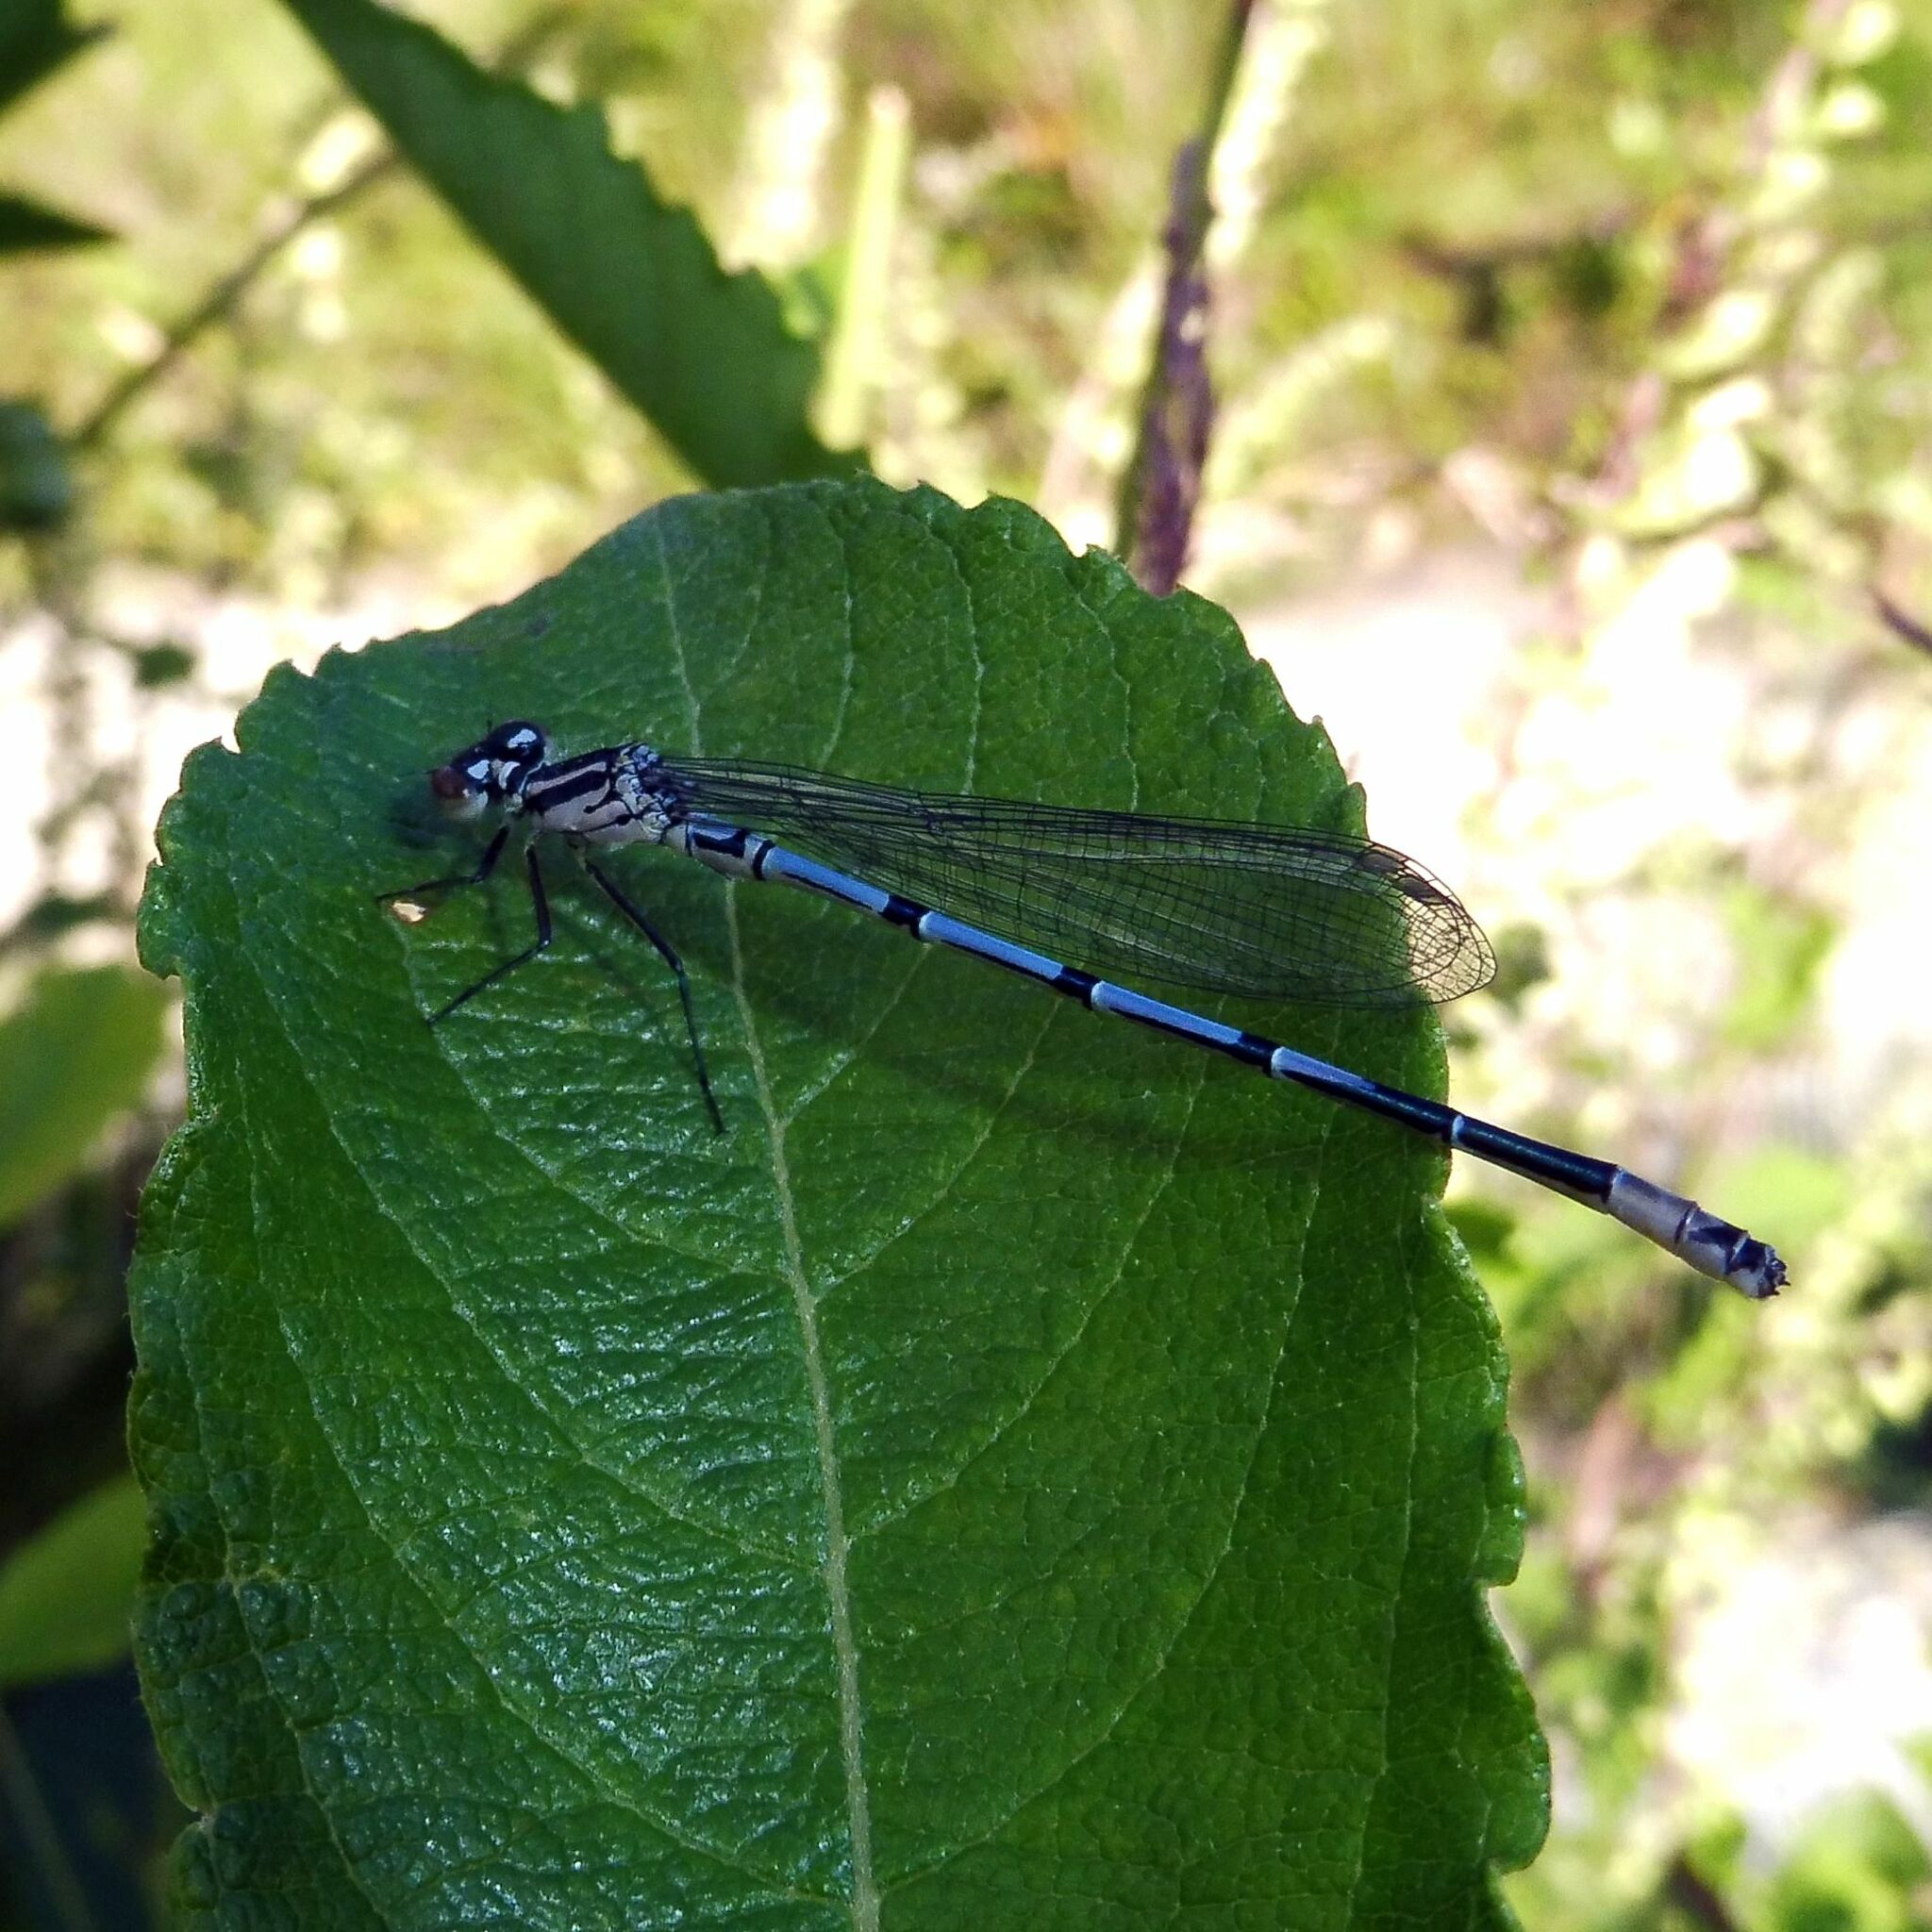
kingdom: Animalia
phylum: Arthropoda
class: Insecta
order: Odonata
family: Coenagrionidae
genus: Coenagrion
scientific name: Coenagrion puella
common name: Azure damselfly
